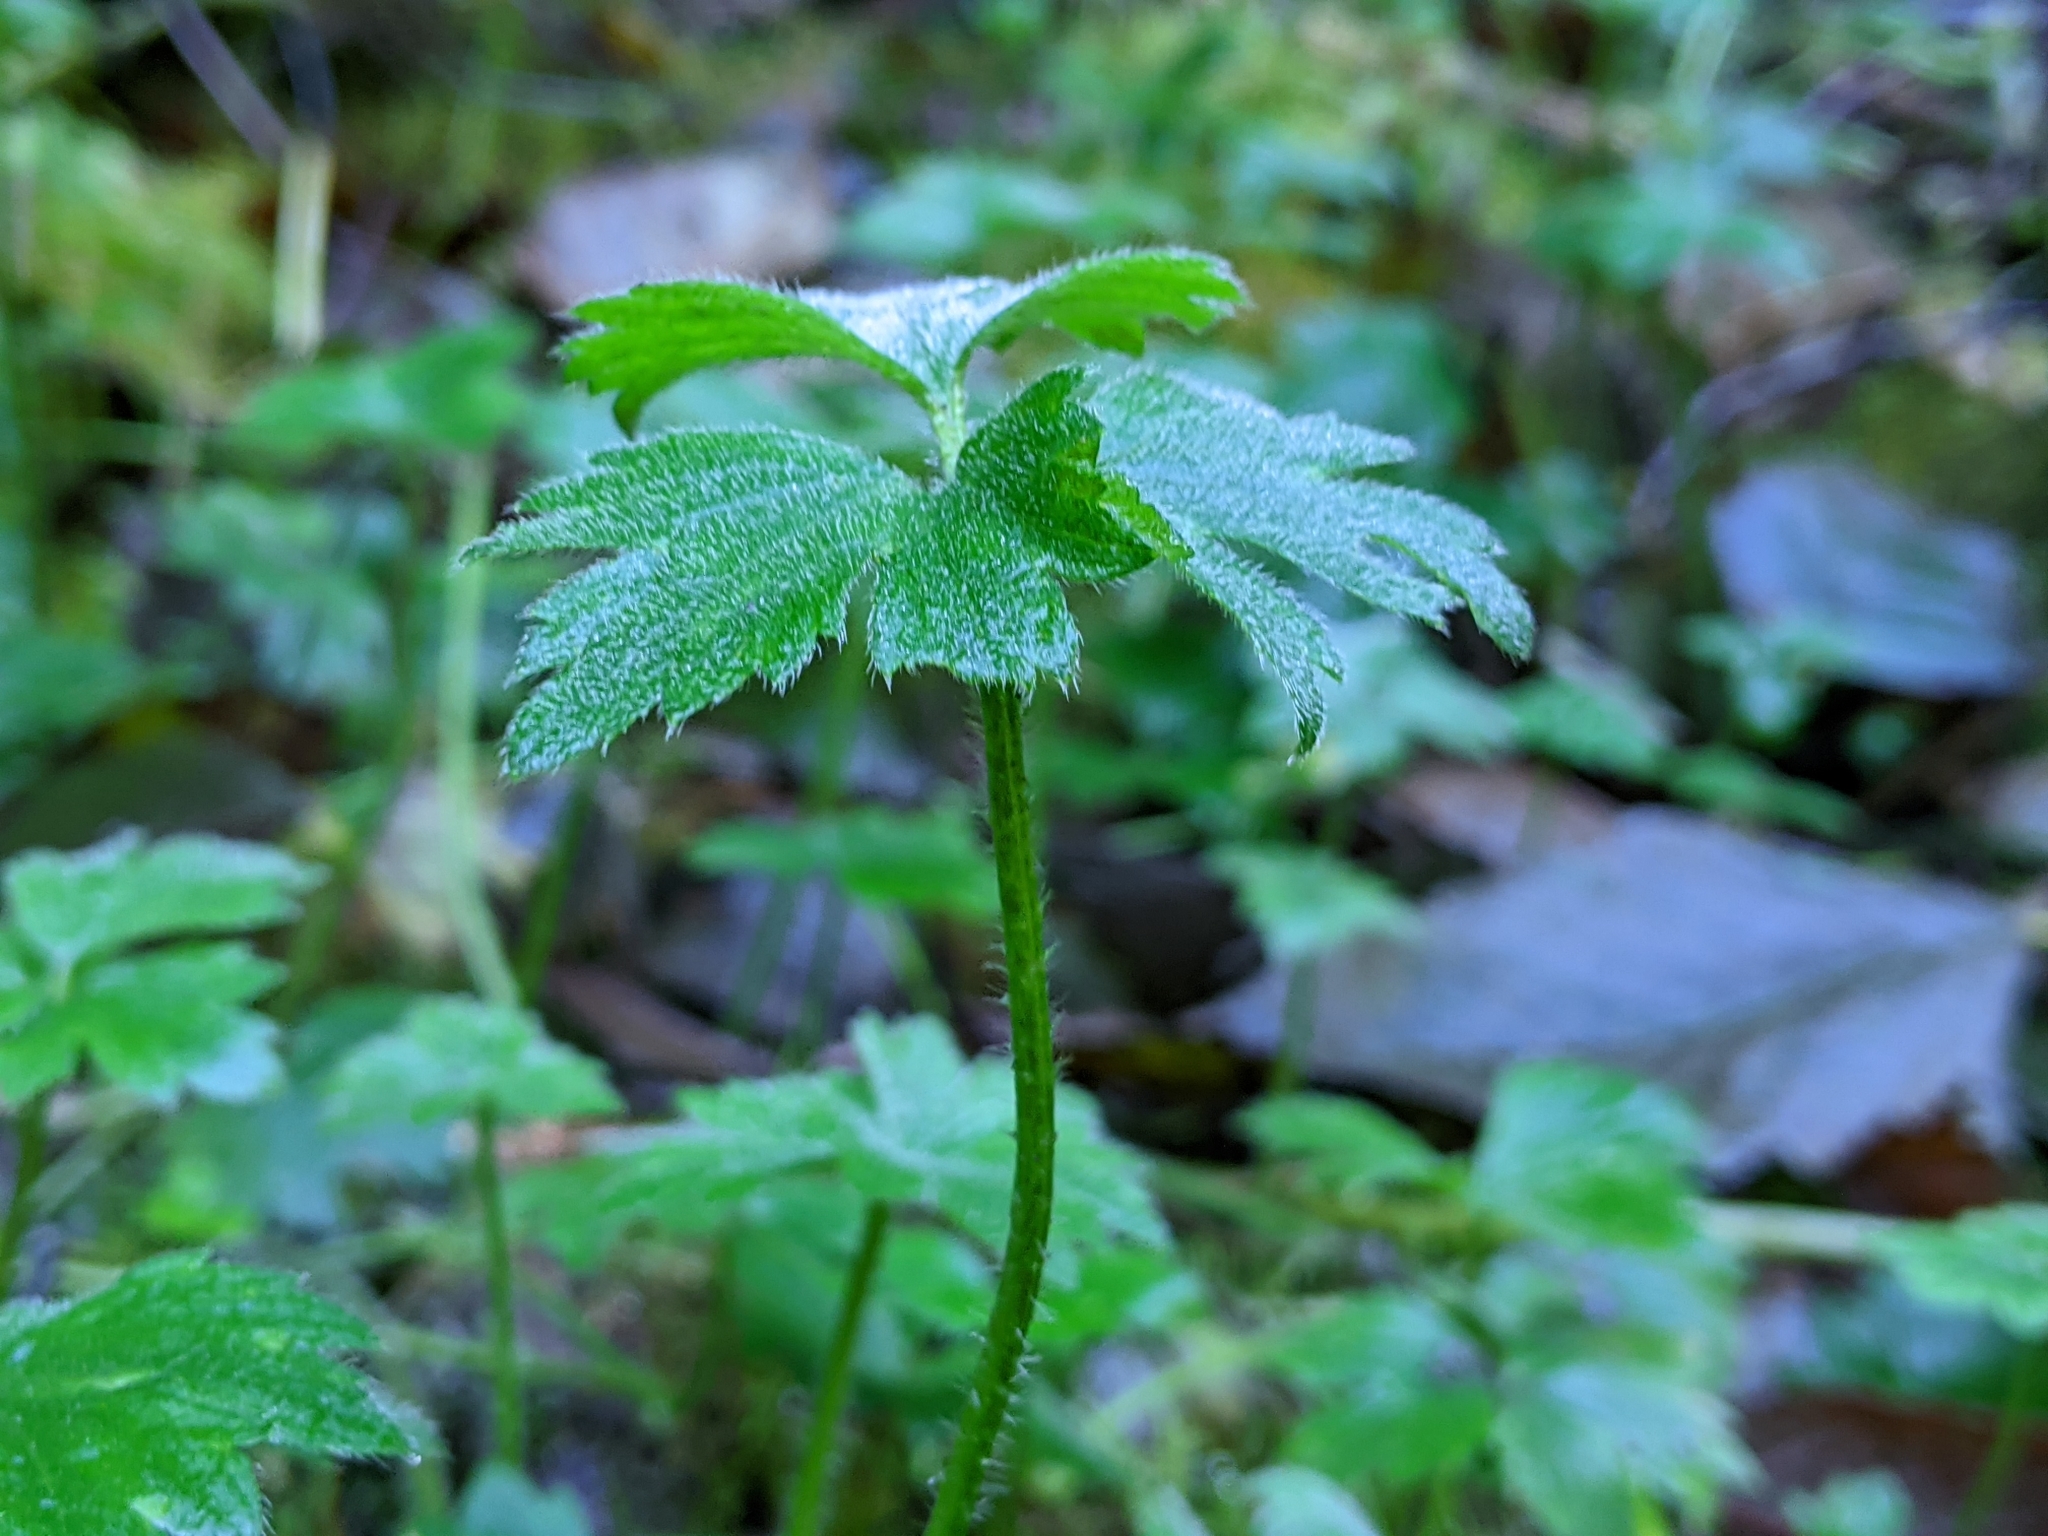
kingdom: Plantae
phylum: Tracheophyta
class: Magnoliopsida
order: Ranunculales
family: Ranunculaceae
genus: Ranunculus
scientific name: Ranunculus repens
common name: Creeping buttercup
